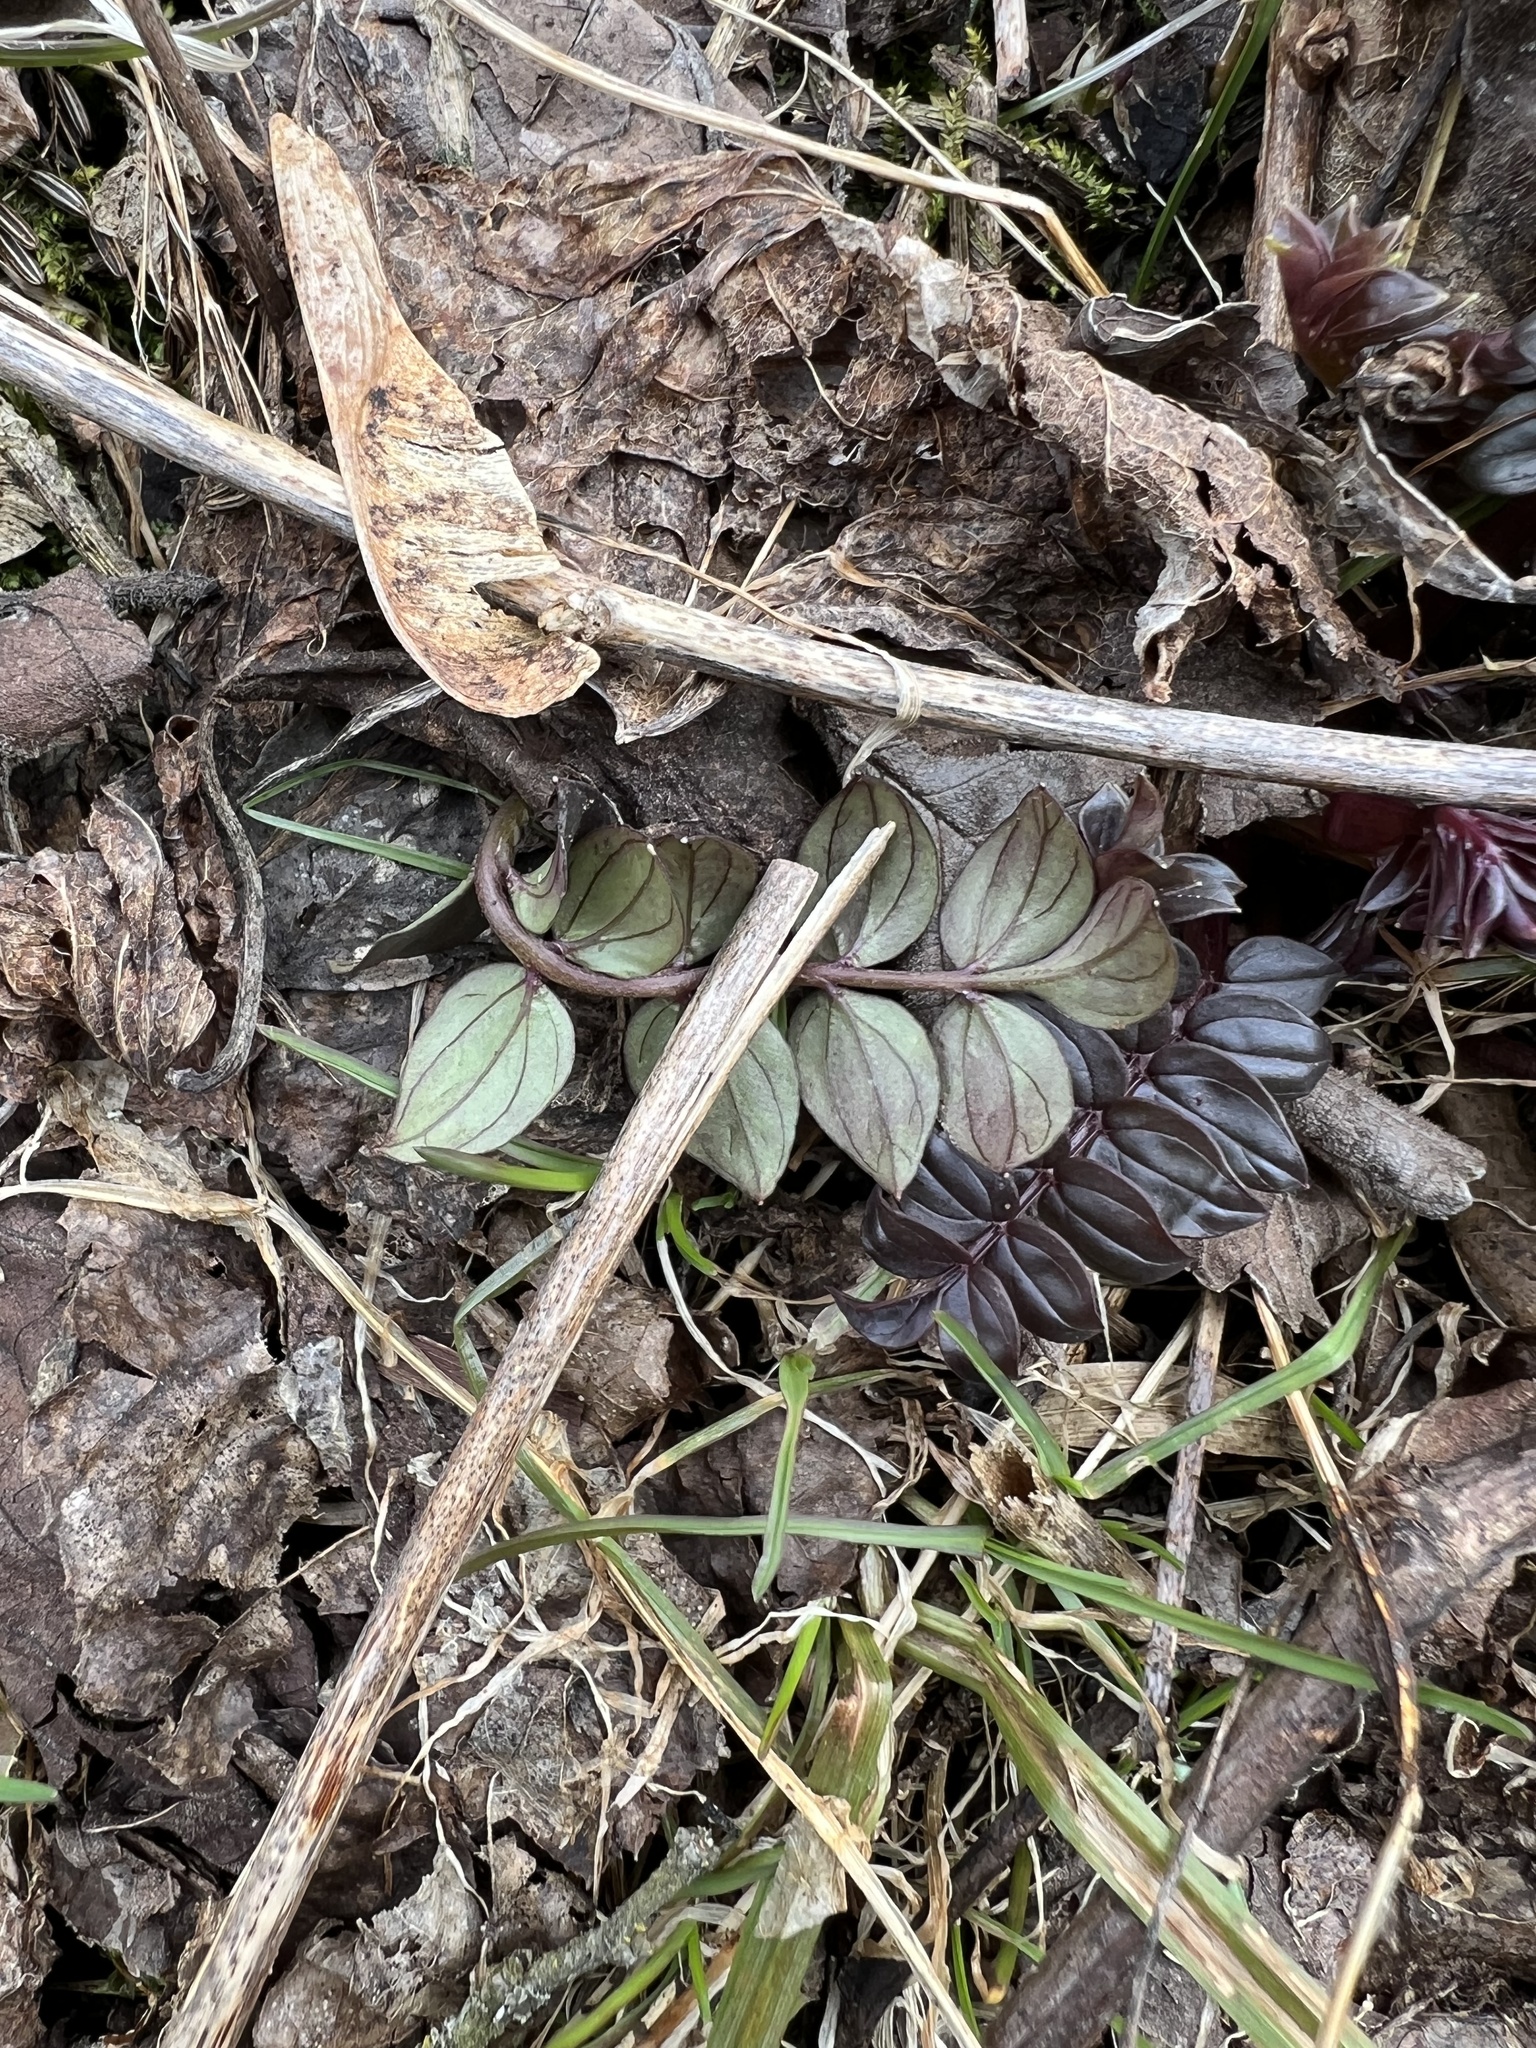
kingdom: Plantae
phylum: Tracheophyta
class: Magnoliopsida
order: Ericales
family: Polemoniaceae
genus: Polemonium
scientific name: Polemonium reptans
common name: Creeping jacob's-ladder
